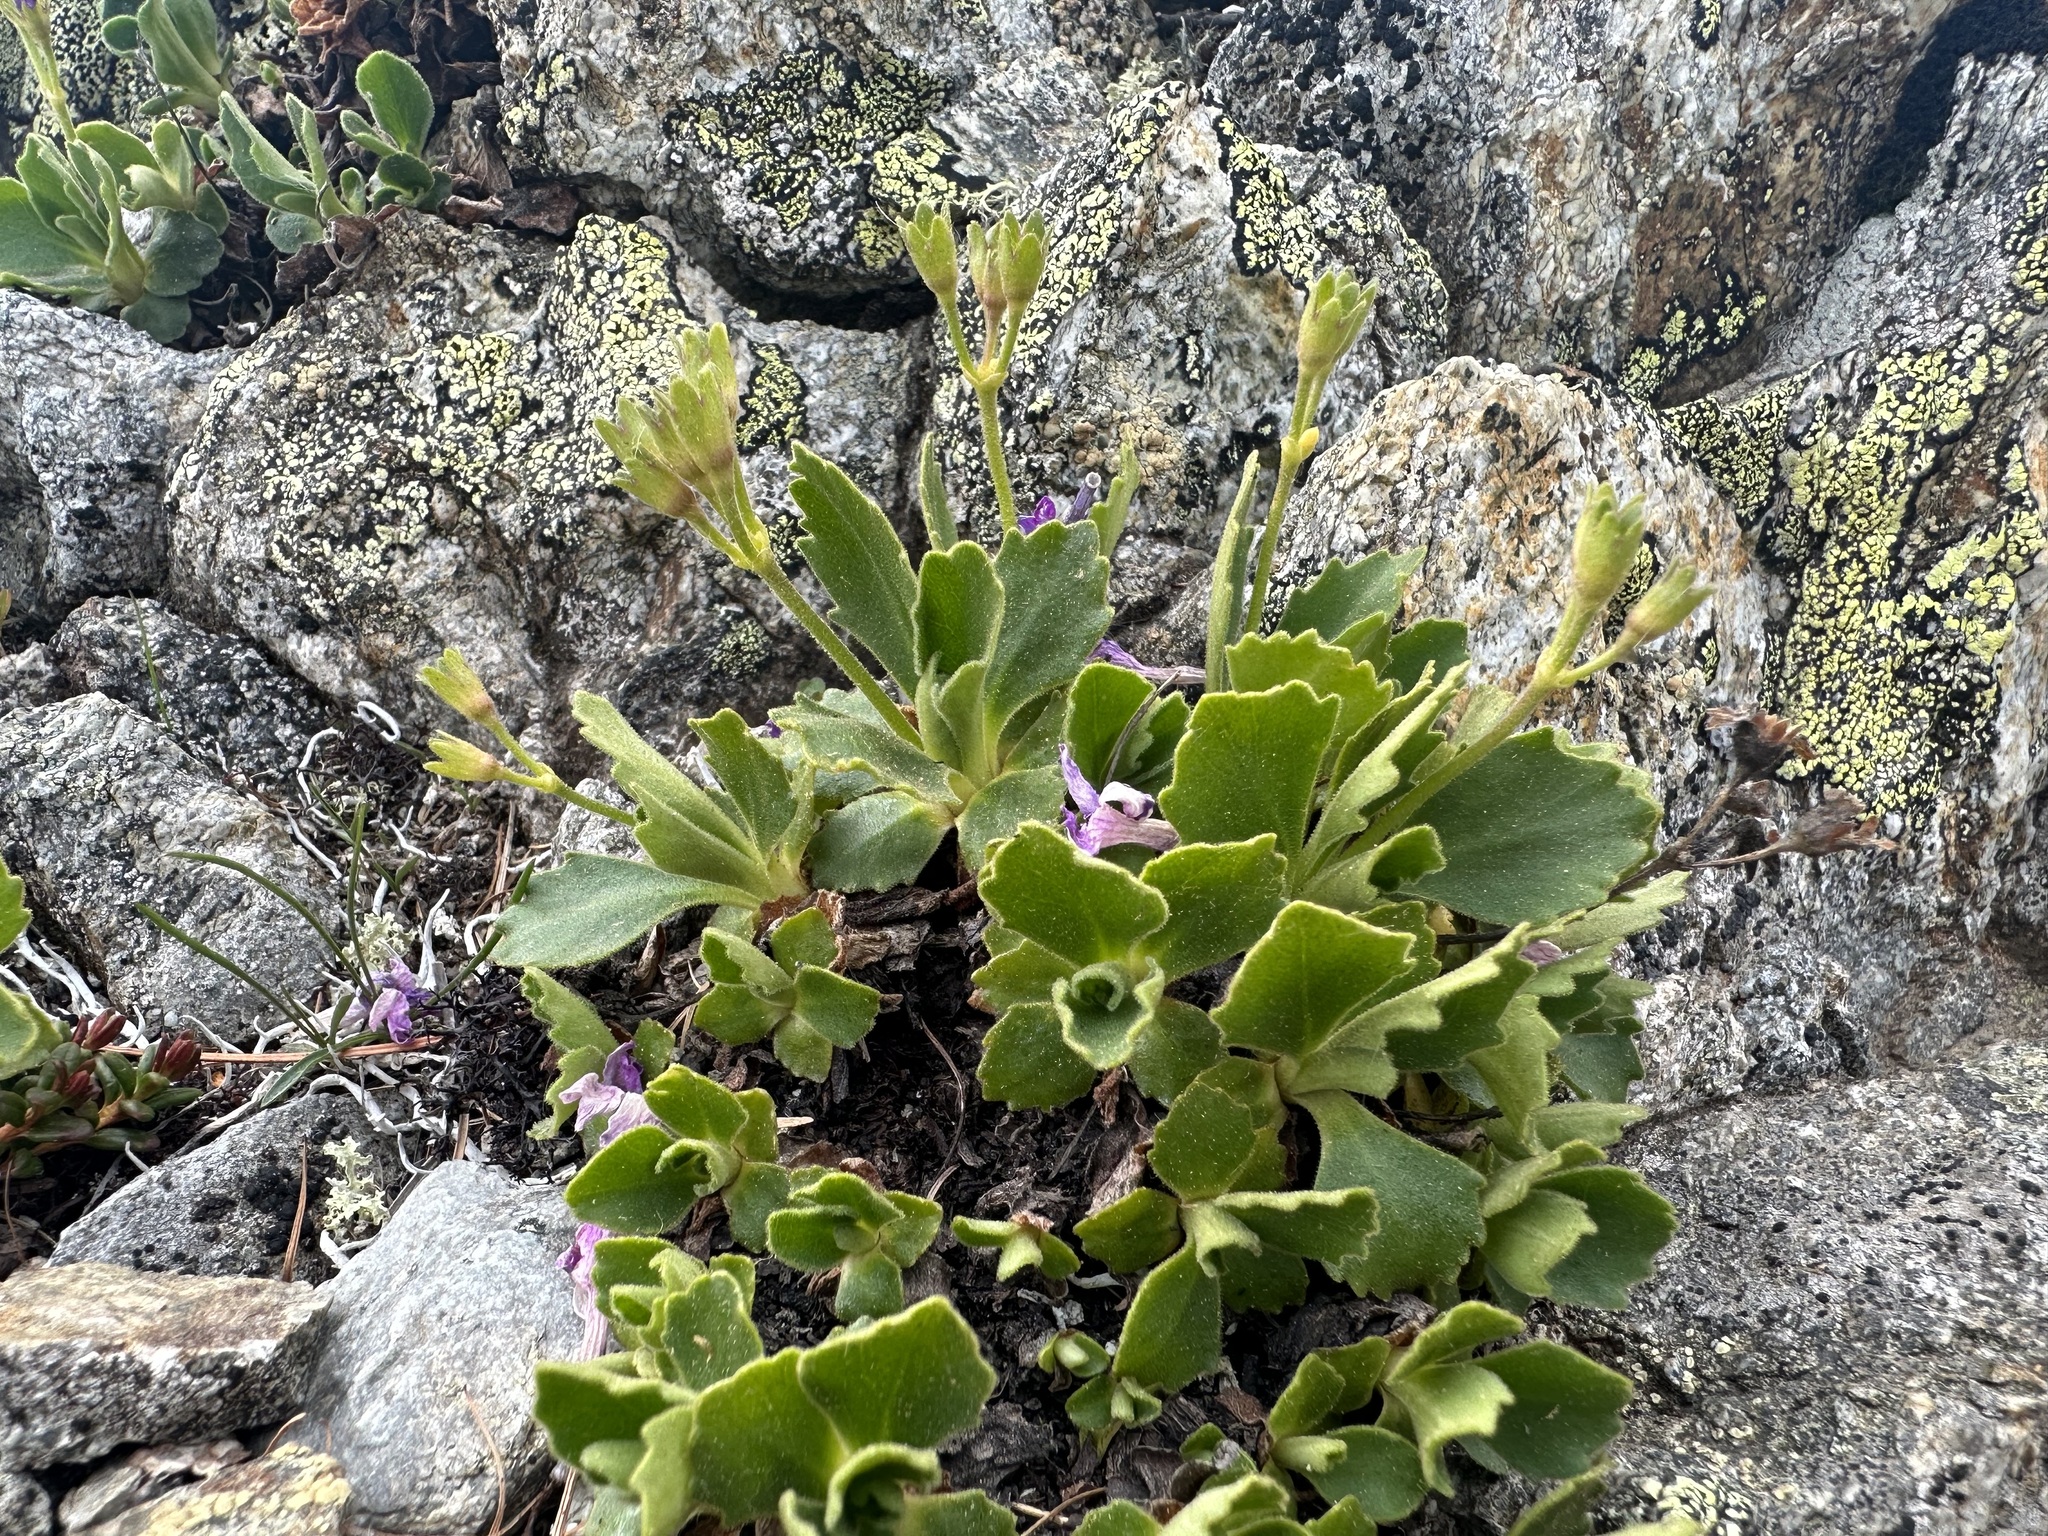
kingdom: Plantae
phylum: Tracheophyta
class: Magnoliopsida
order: Ericales
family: Primulaceae
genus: Primula
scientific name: Primula hirsuta
